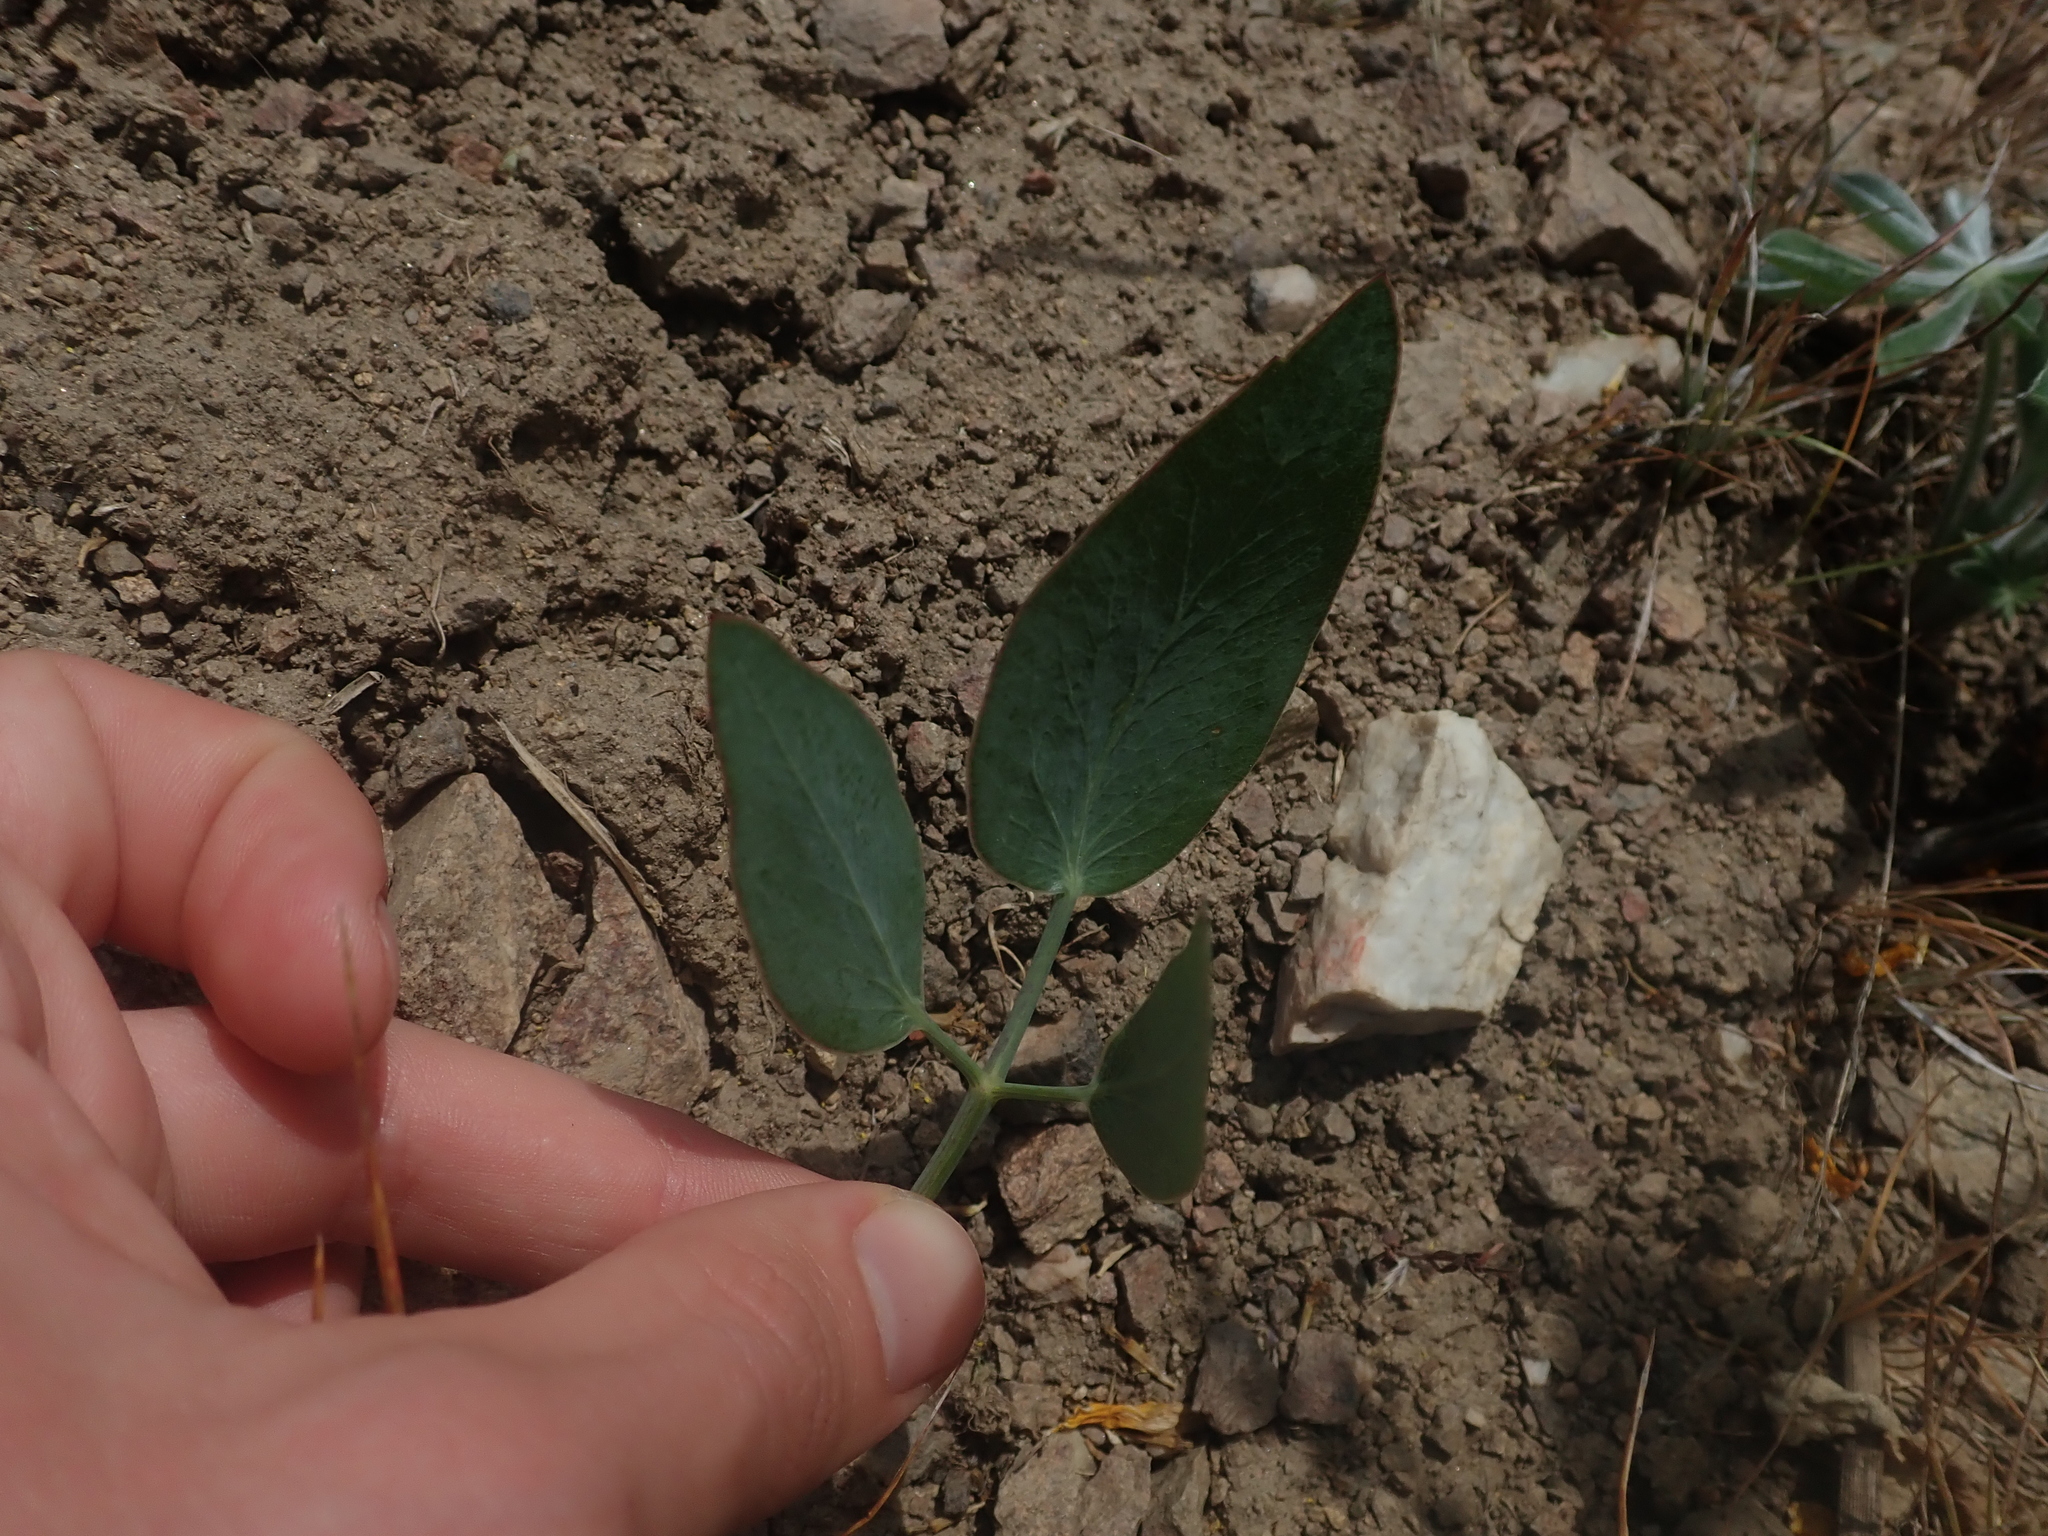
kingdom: Plantae
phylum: Tracheophyta
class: Magnoliopsida
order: Apiales
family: Apiaceae
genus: Lomatium
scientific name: Lomatium nudicaule
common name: Pestle lomatium
